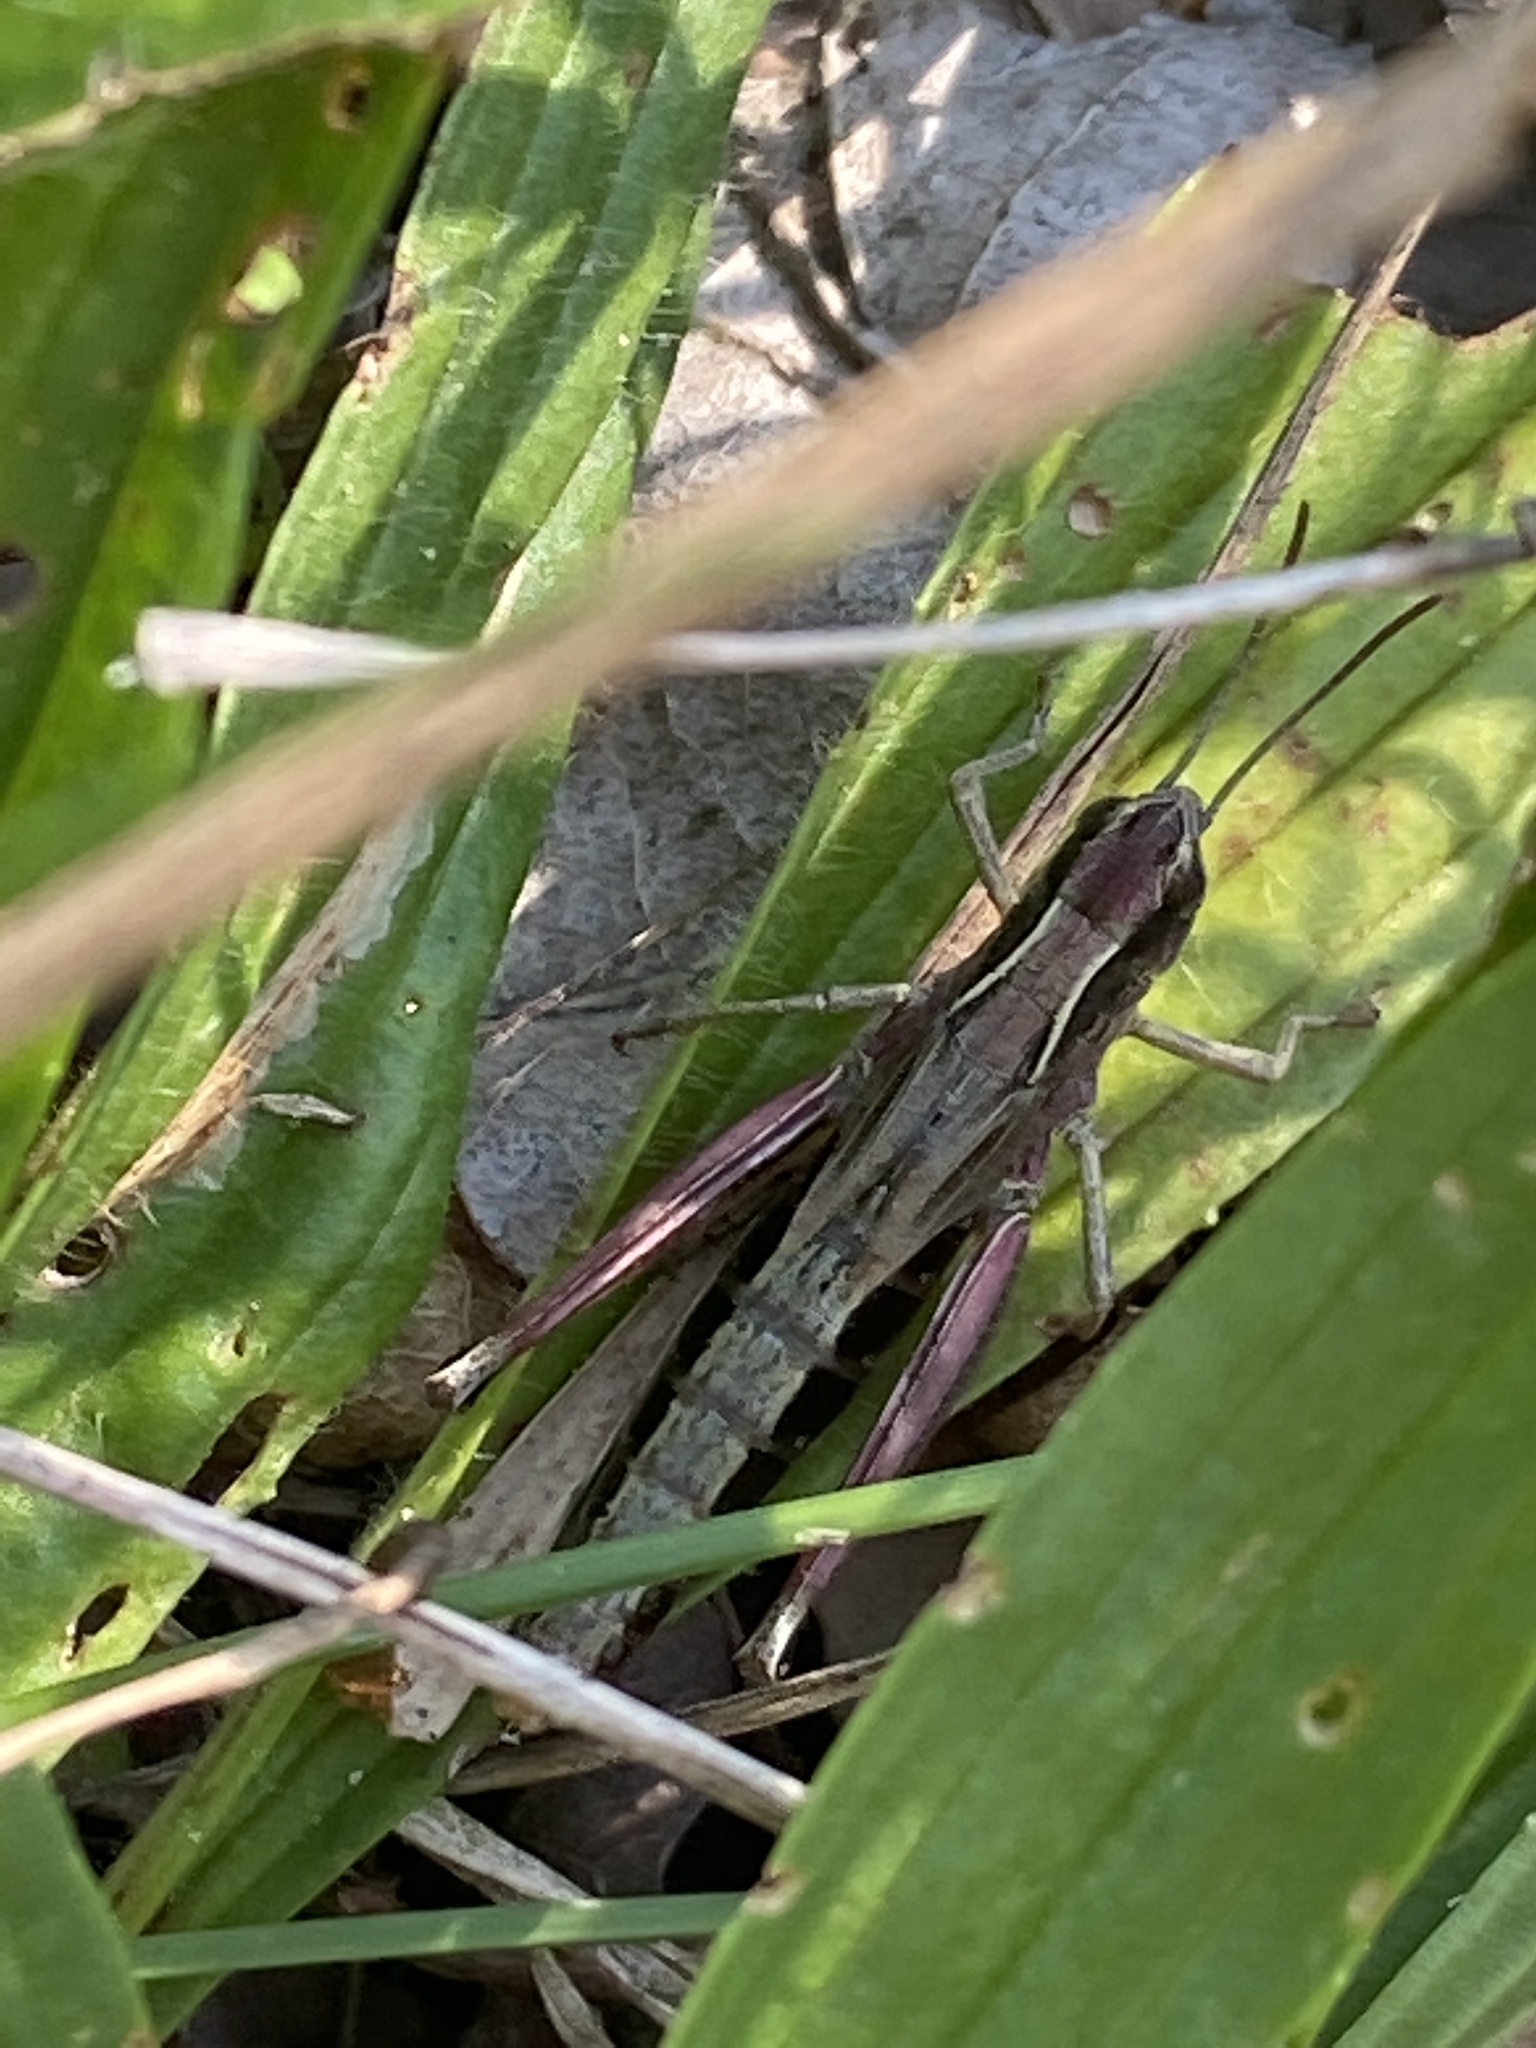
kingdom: Animalia
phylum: Arthropoda
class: Insecta
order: Orthoptera
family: Acrididae
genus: Pseudochorthippus
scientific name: Pseudochorthippus parallelus
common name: Meadow grasshopper
